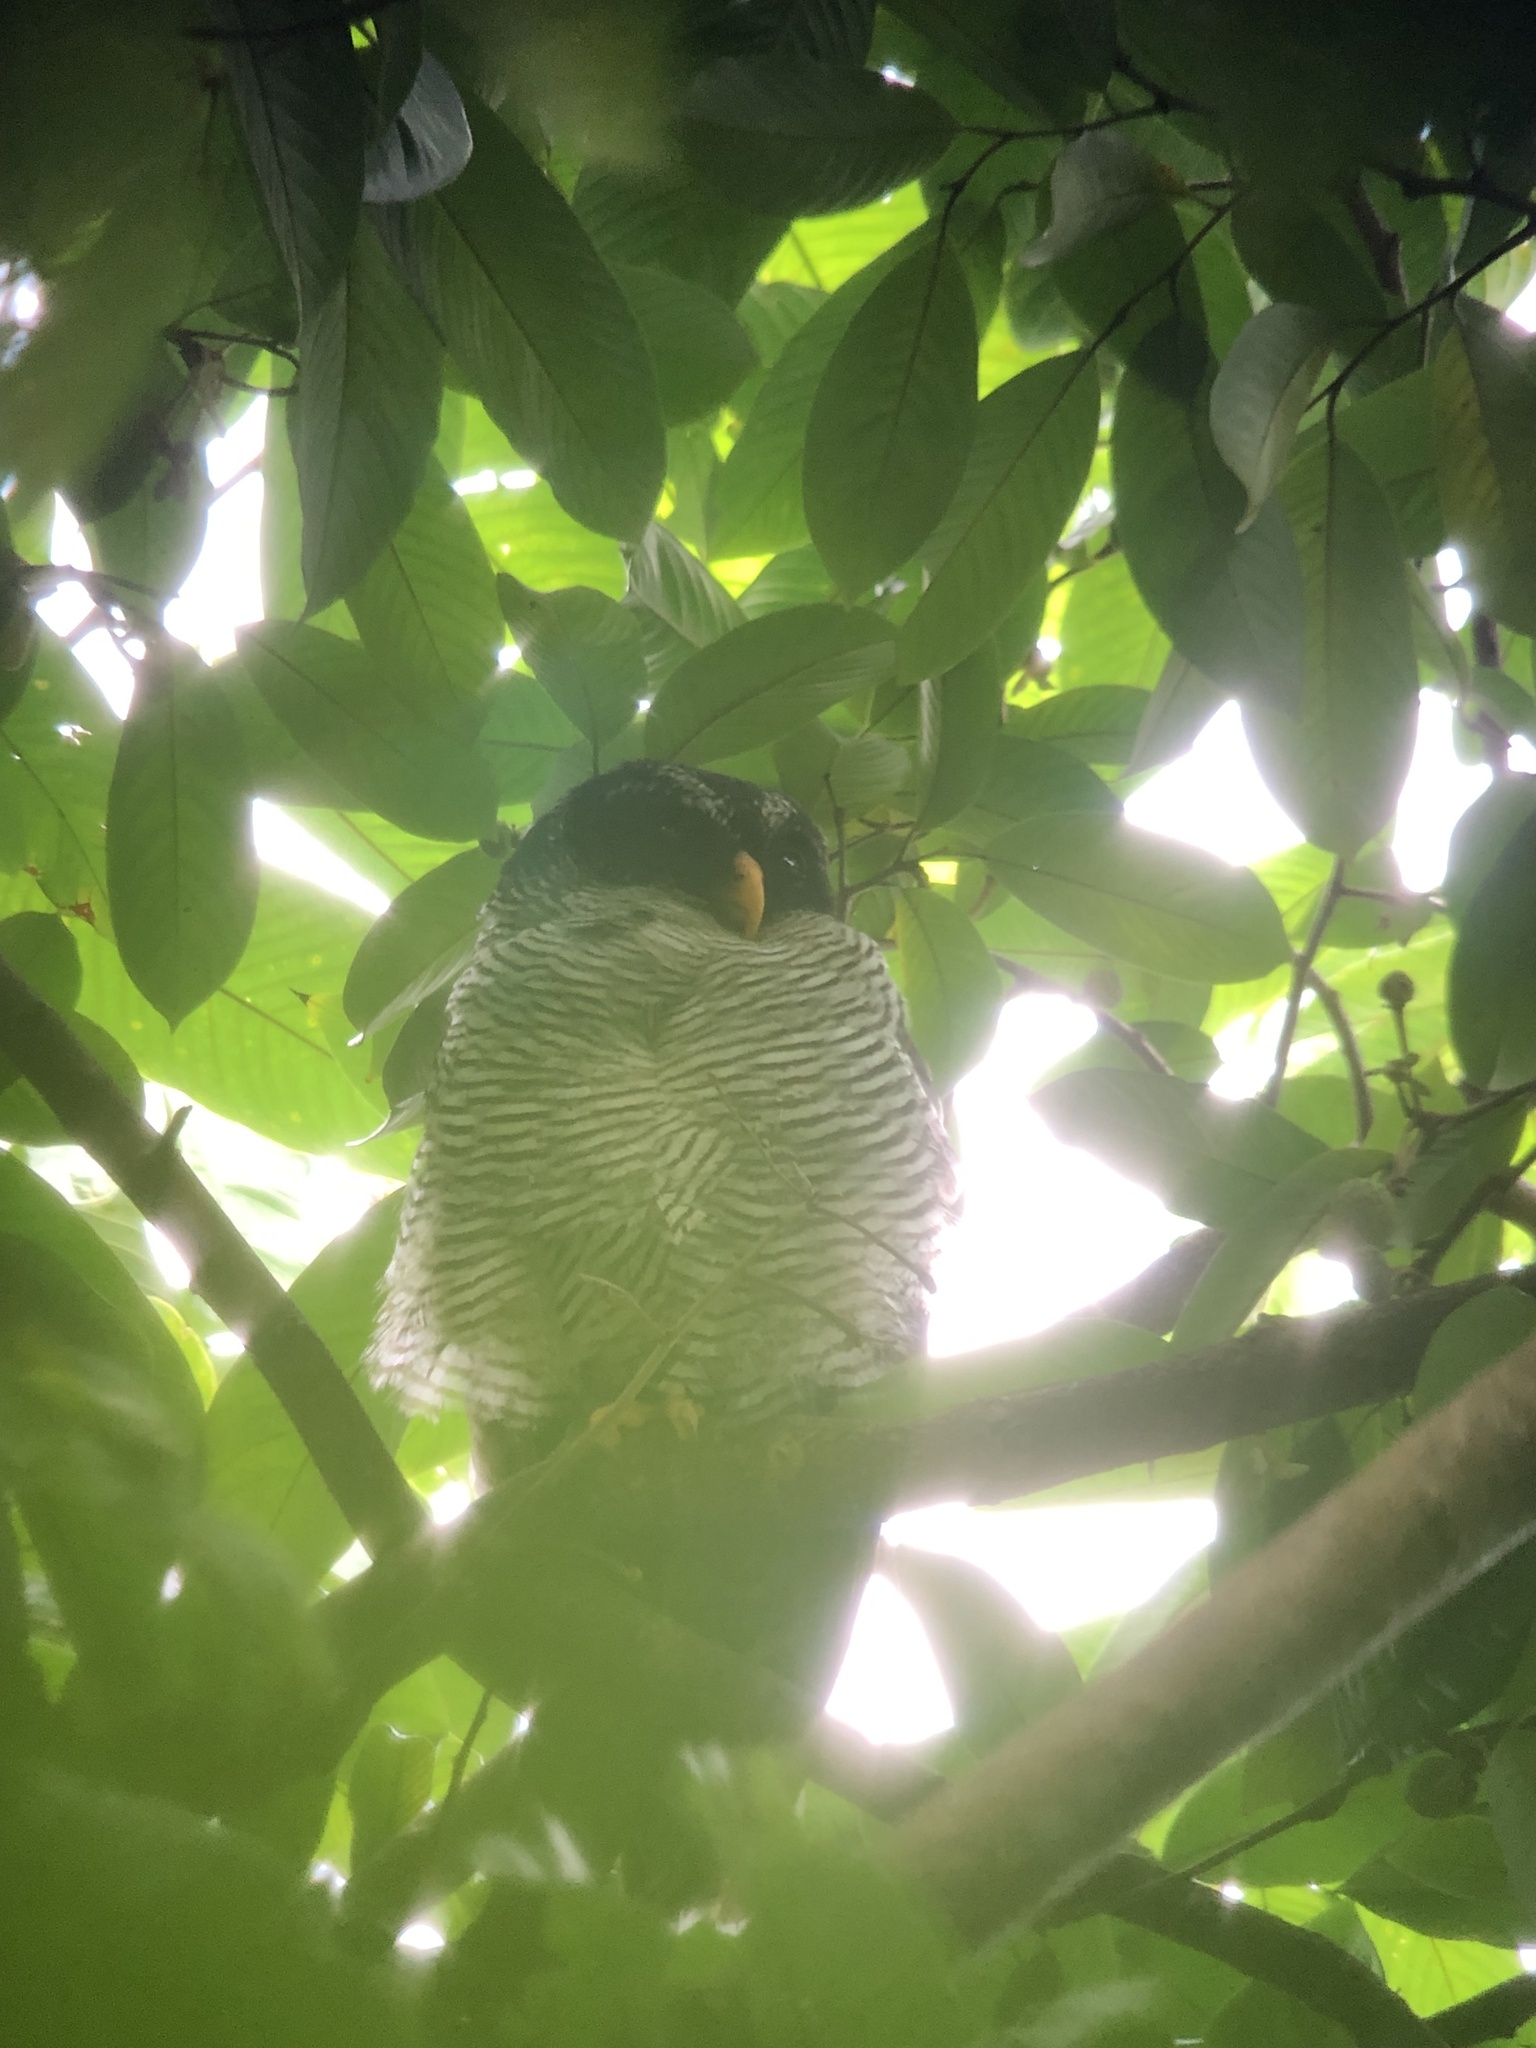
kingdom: Animalia
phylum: Chordata
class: Aves
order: Strigiformes
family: Strigidae
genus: Strix
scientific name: Strix nigrolineata
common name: Black-and-white owl
